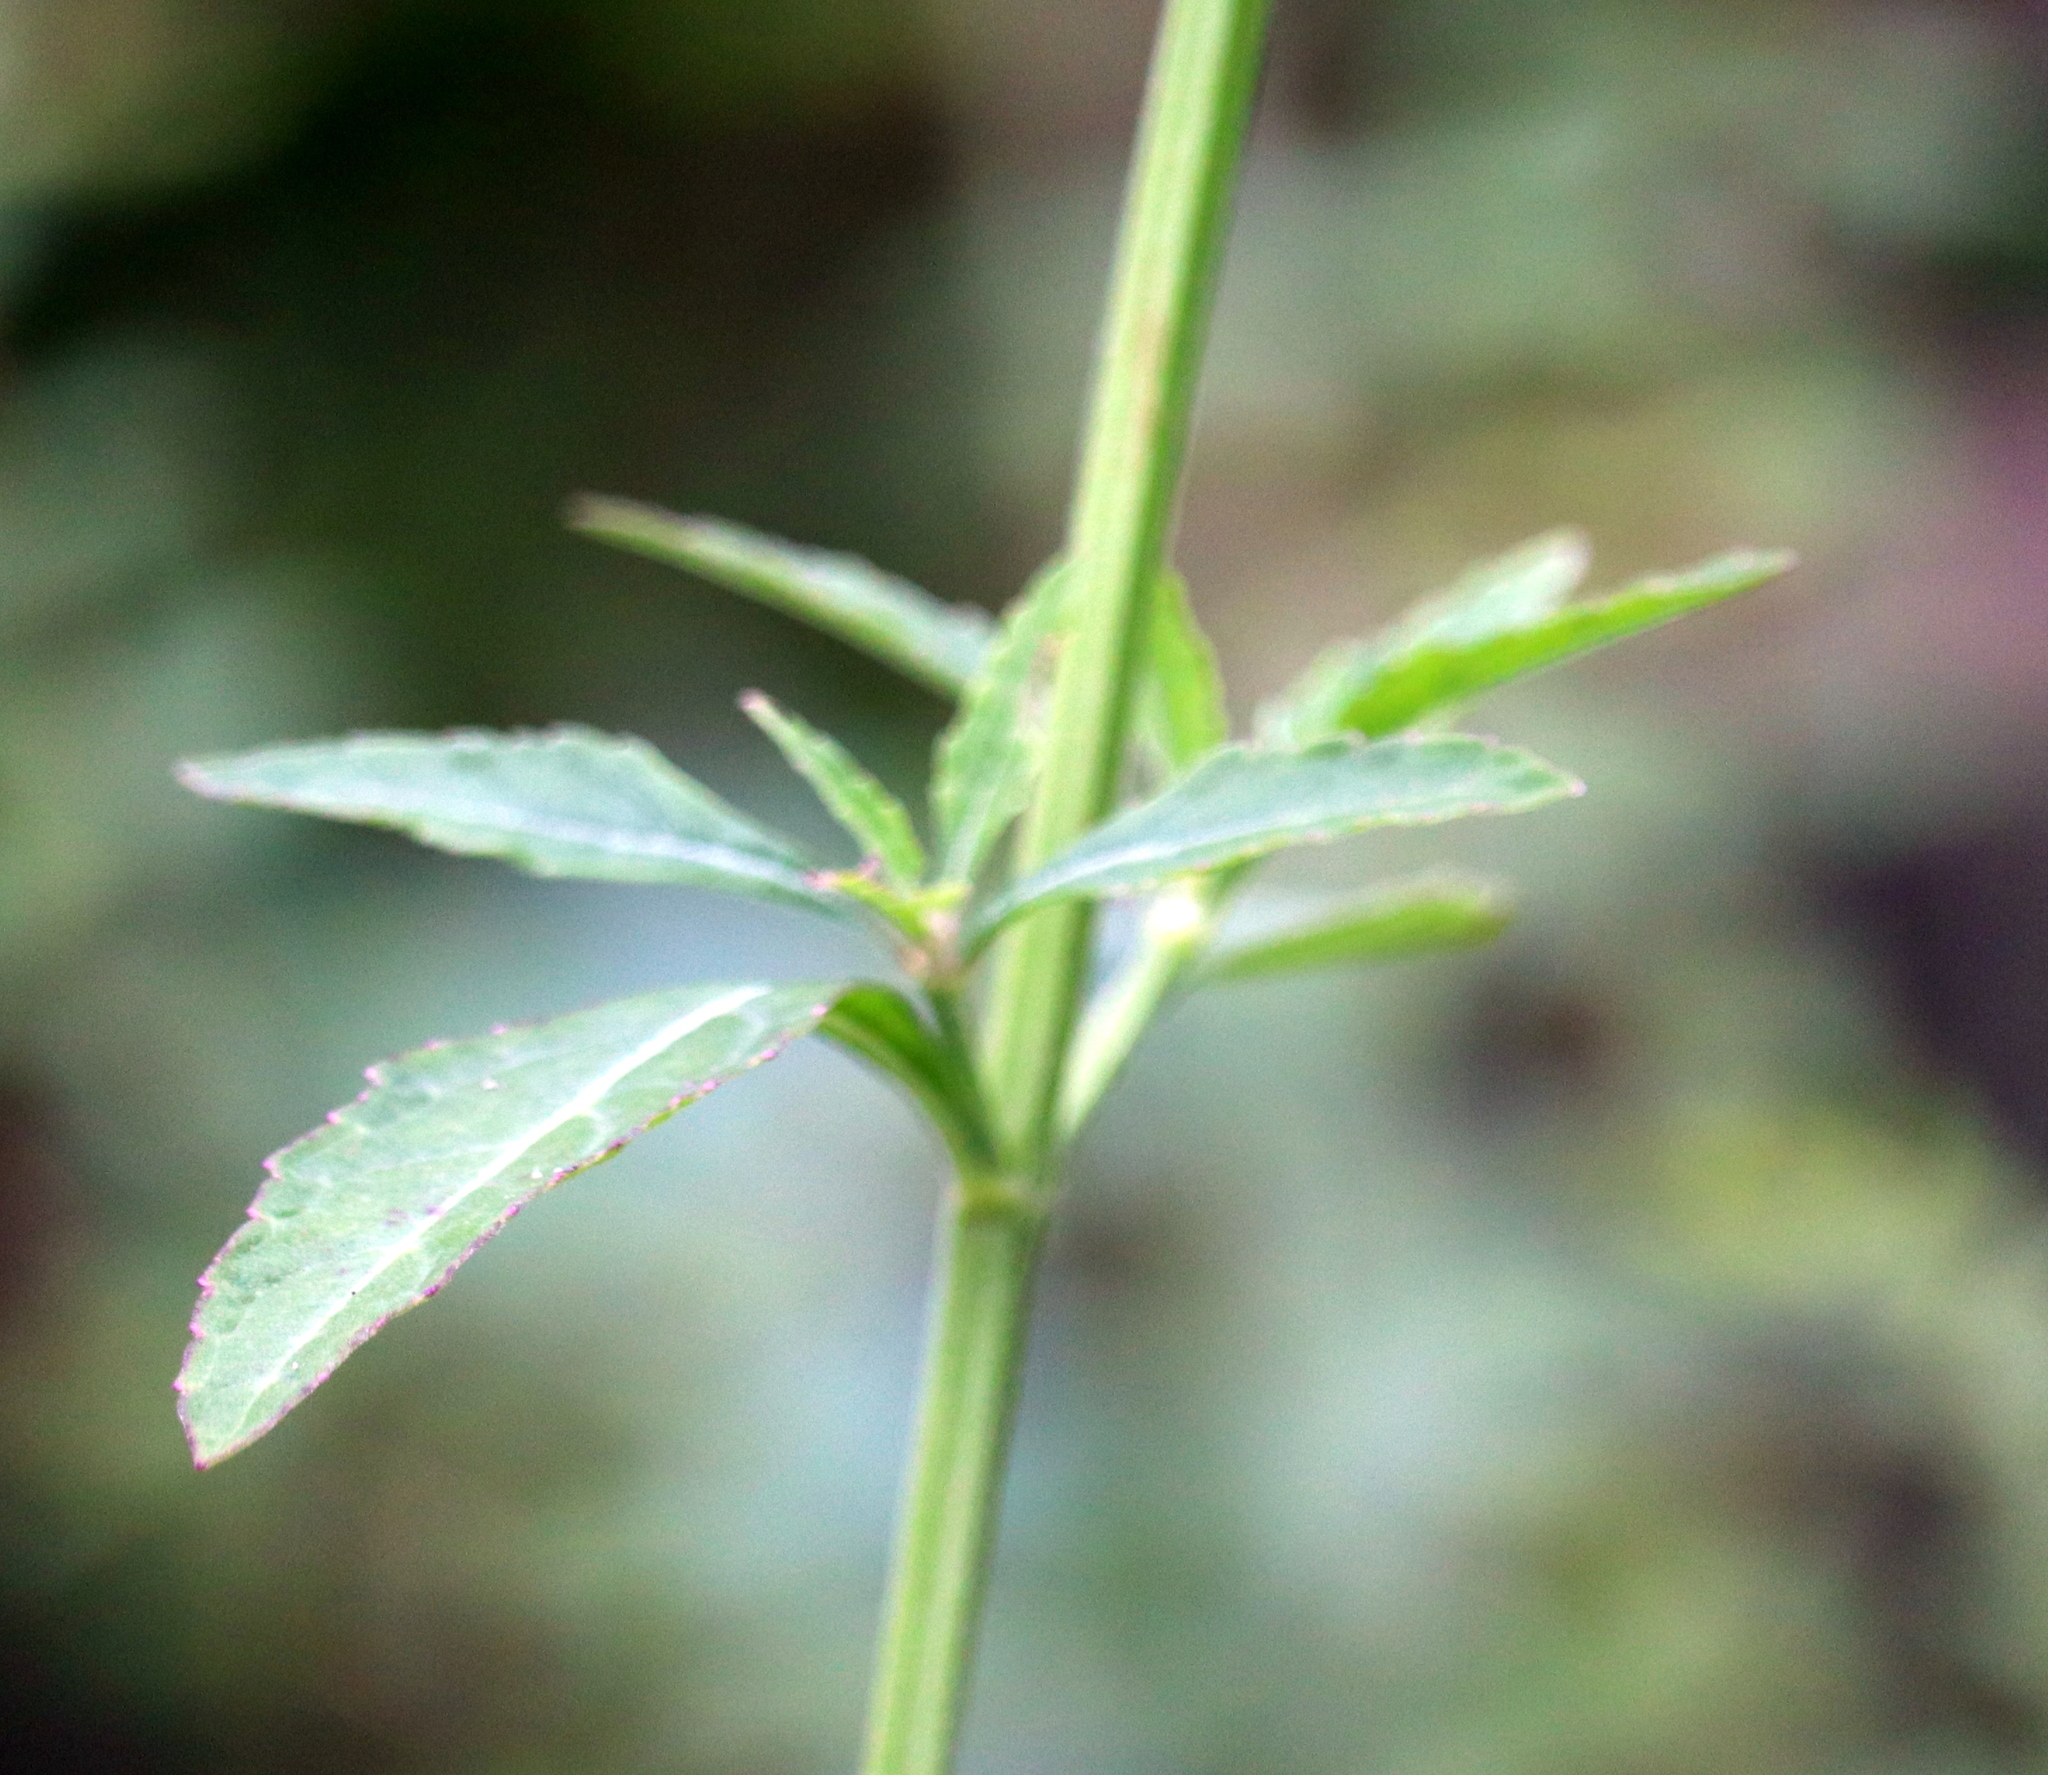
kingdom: Plantae
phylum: Tracheophyta
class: Magnoliopsida
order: Lamiales
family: Lamiaceae
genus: Hyptis
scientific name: Hyptis alata
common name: Cluster bush-mint
